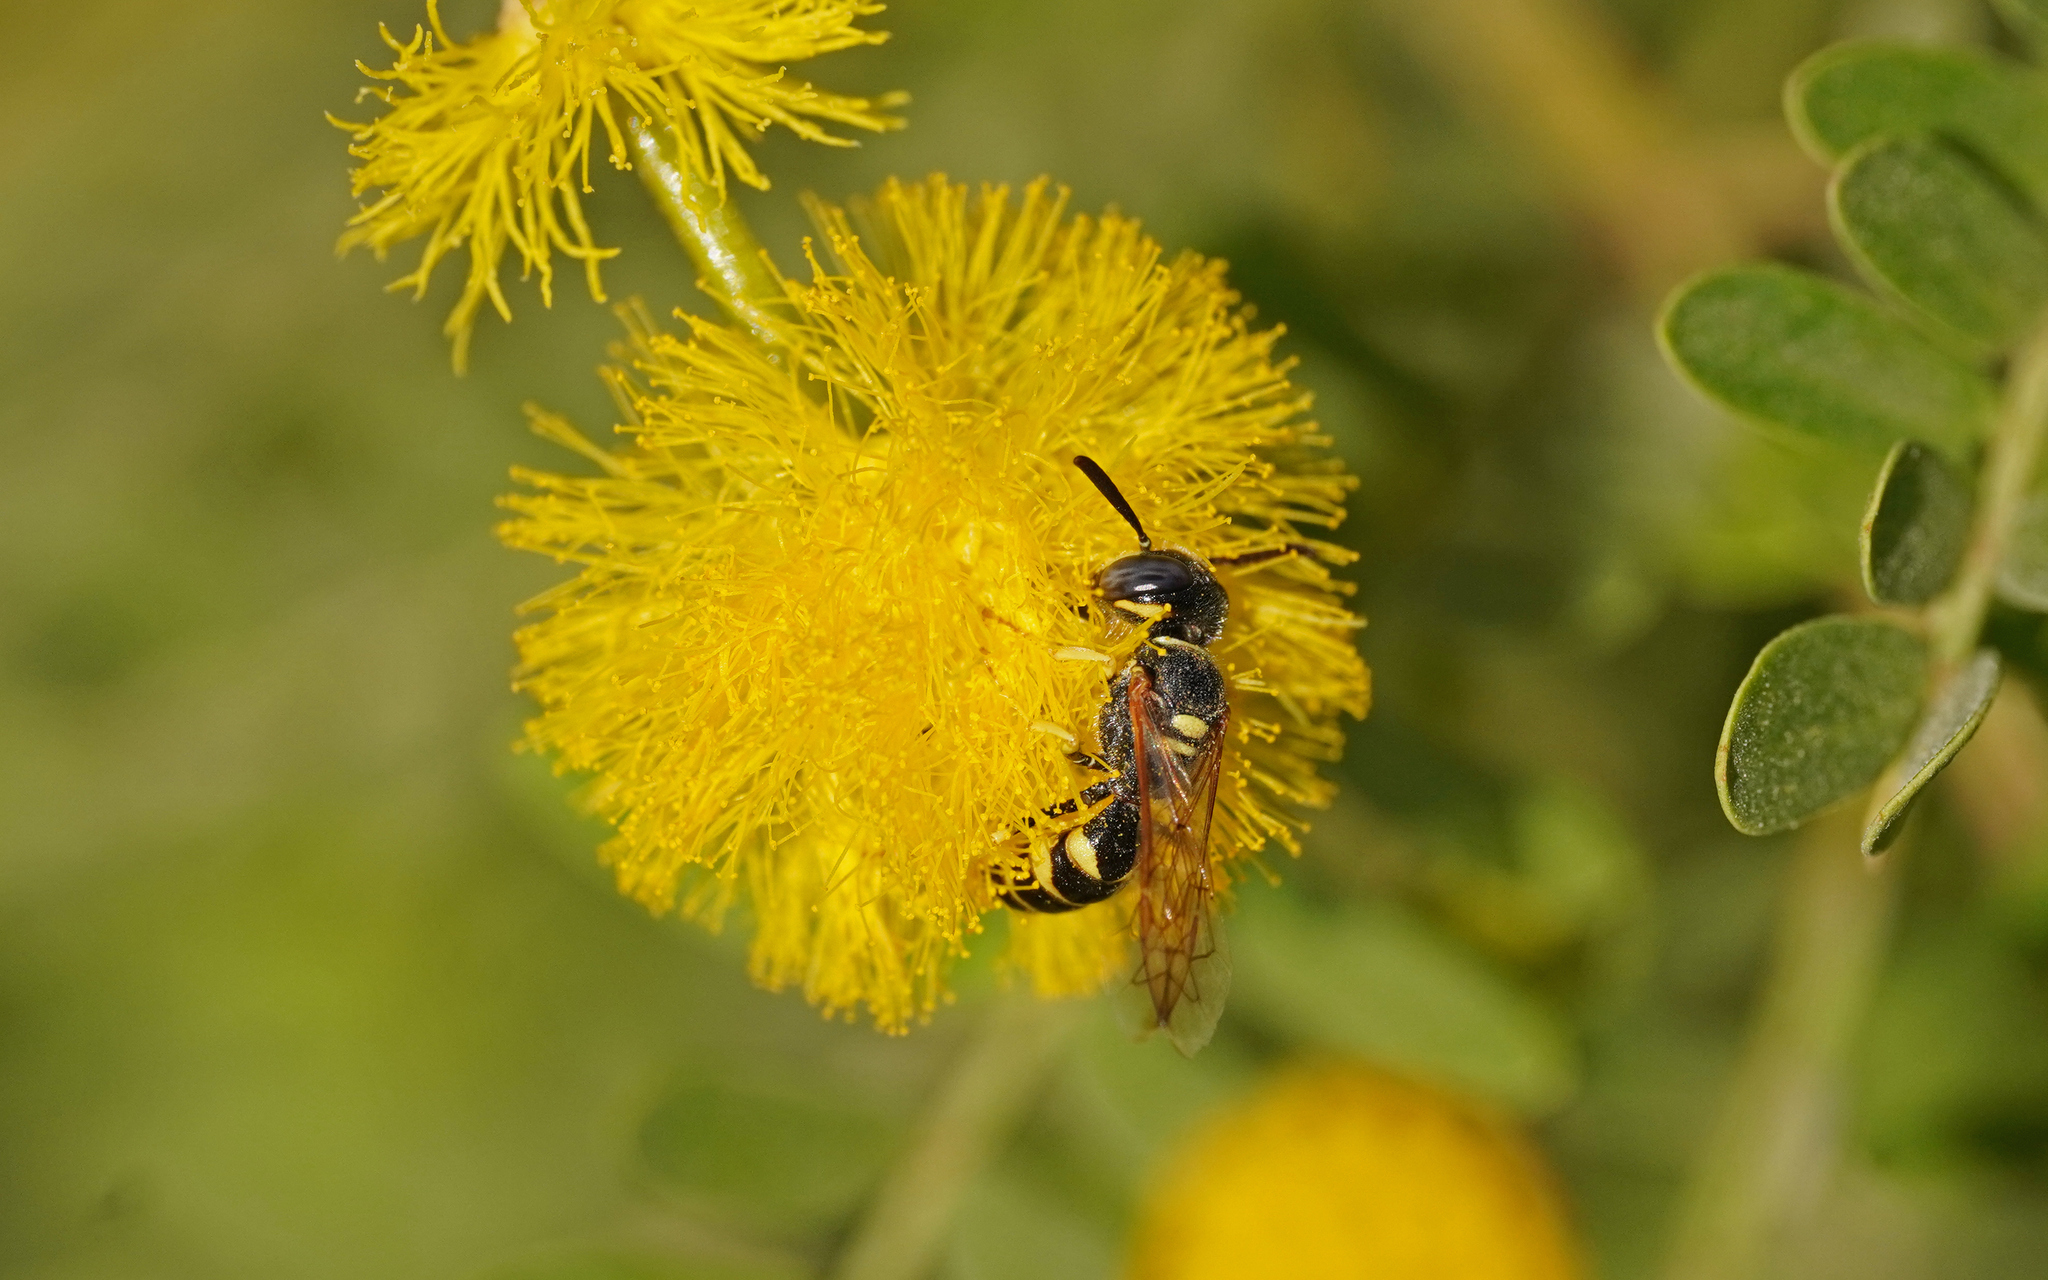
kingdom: Animalia
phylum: Arthropoda
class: Insecta
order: Hymenoptera
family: Crabronidae
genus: Philanthus
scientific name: Philanthus triangulum
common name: Bee wolf
